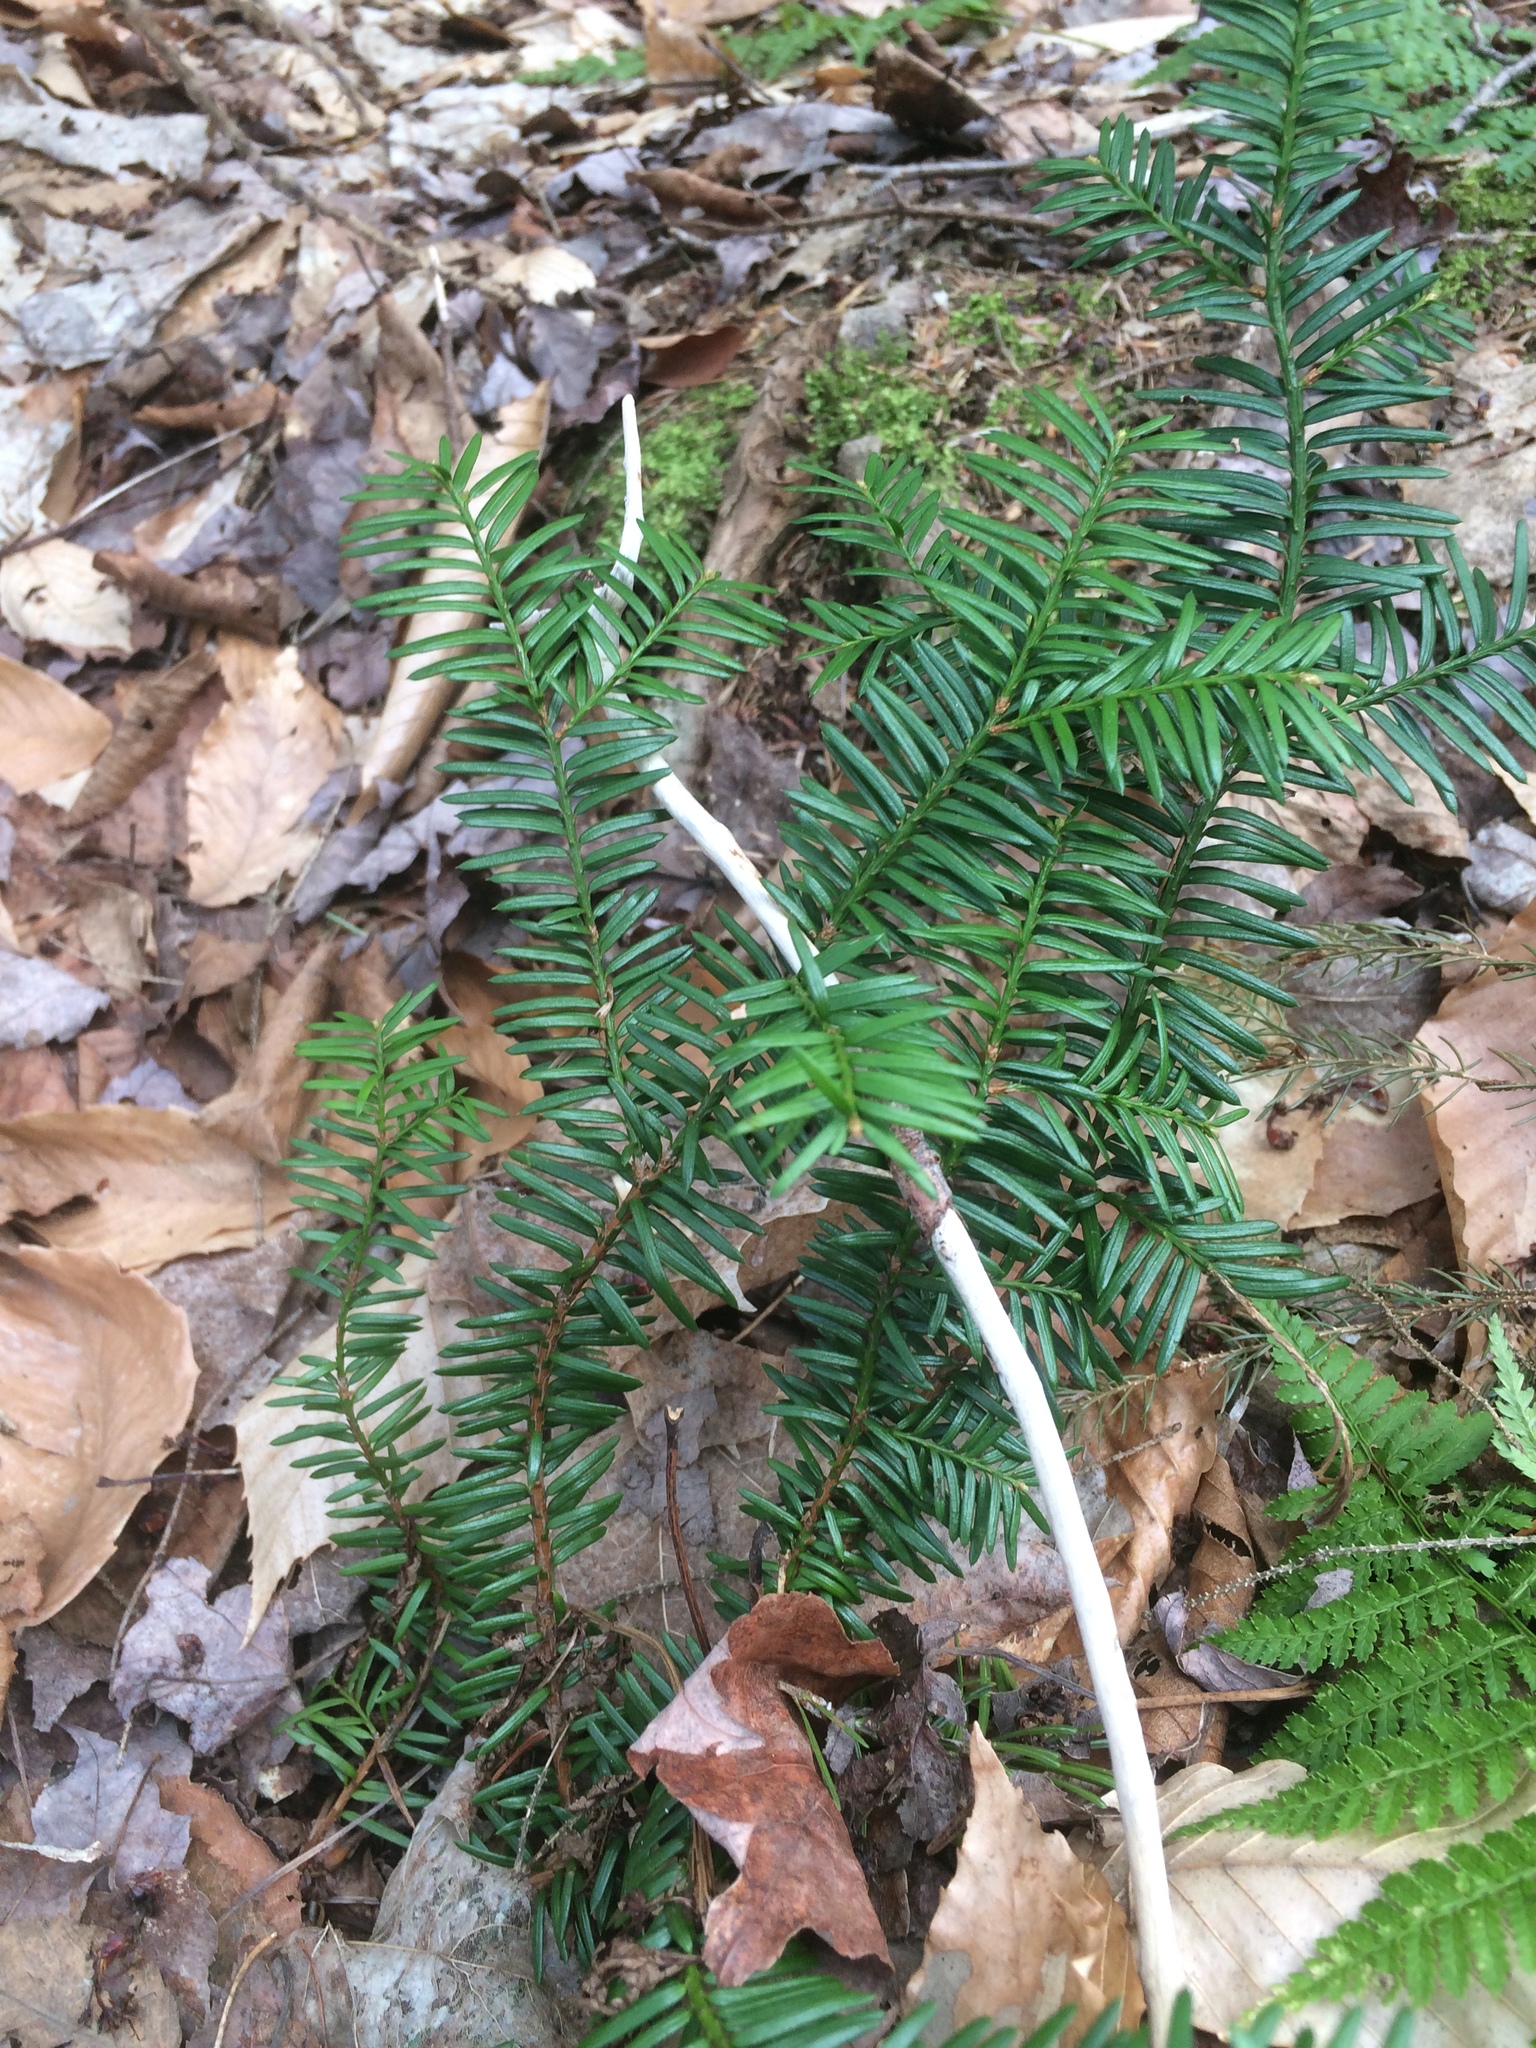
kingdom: Plantae
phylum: Tracheophyta
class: Pinopsida
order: Pinales
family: Taxaceae
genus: Taxus
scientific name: Taxus canadensis
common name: American yew
